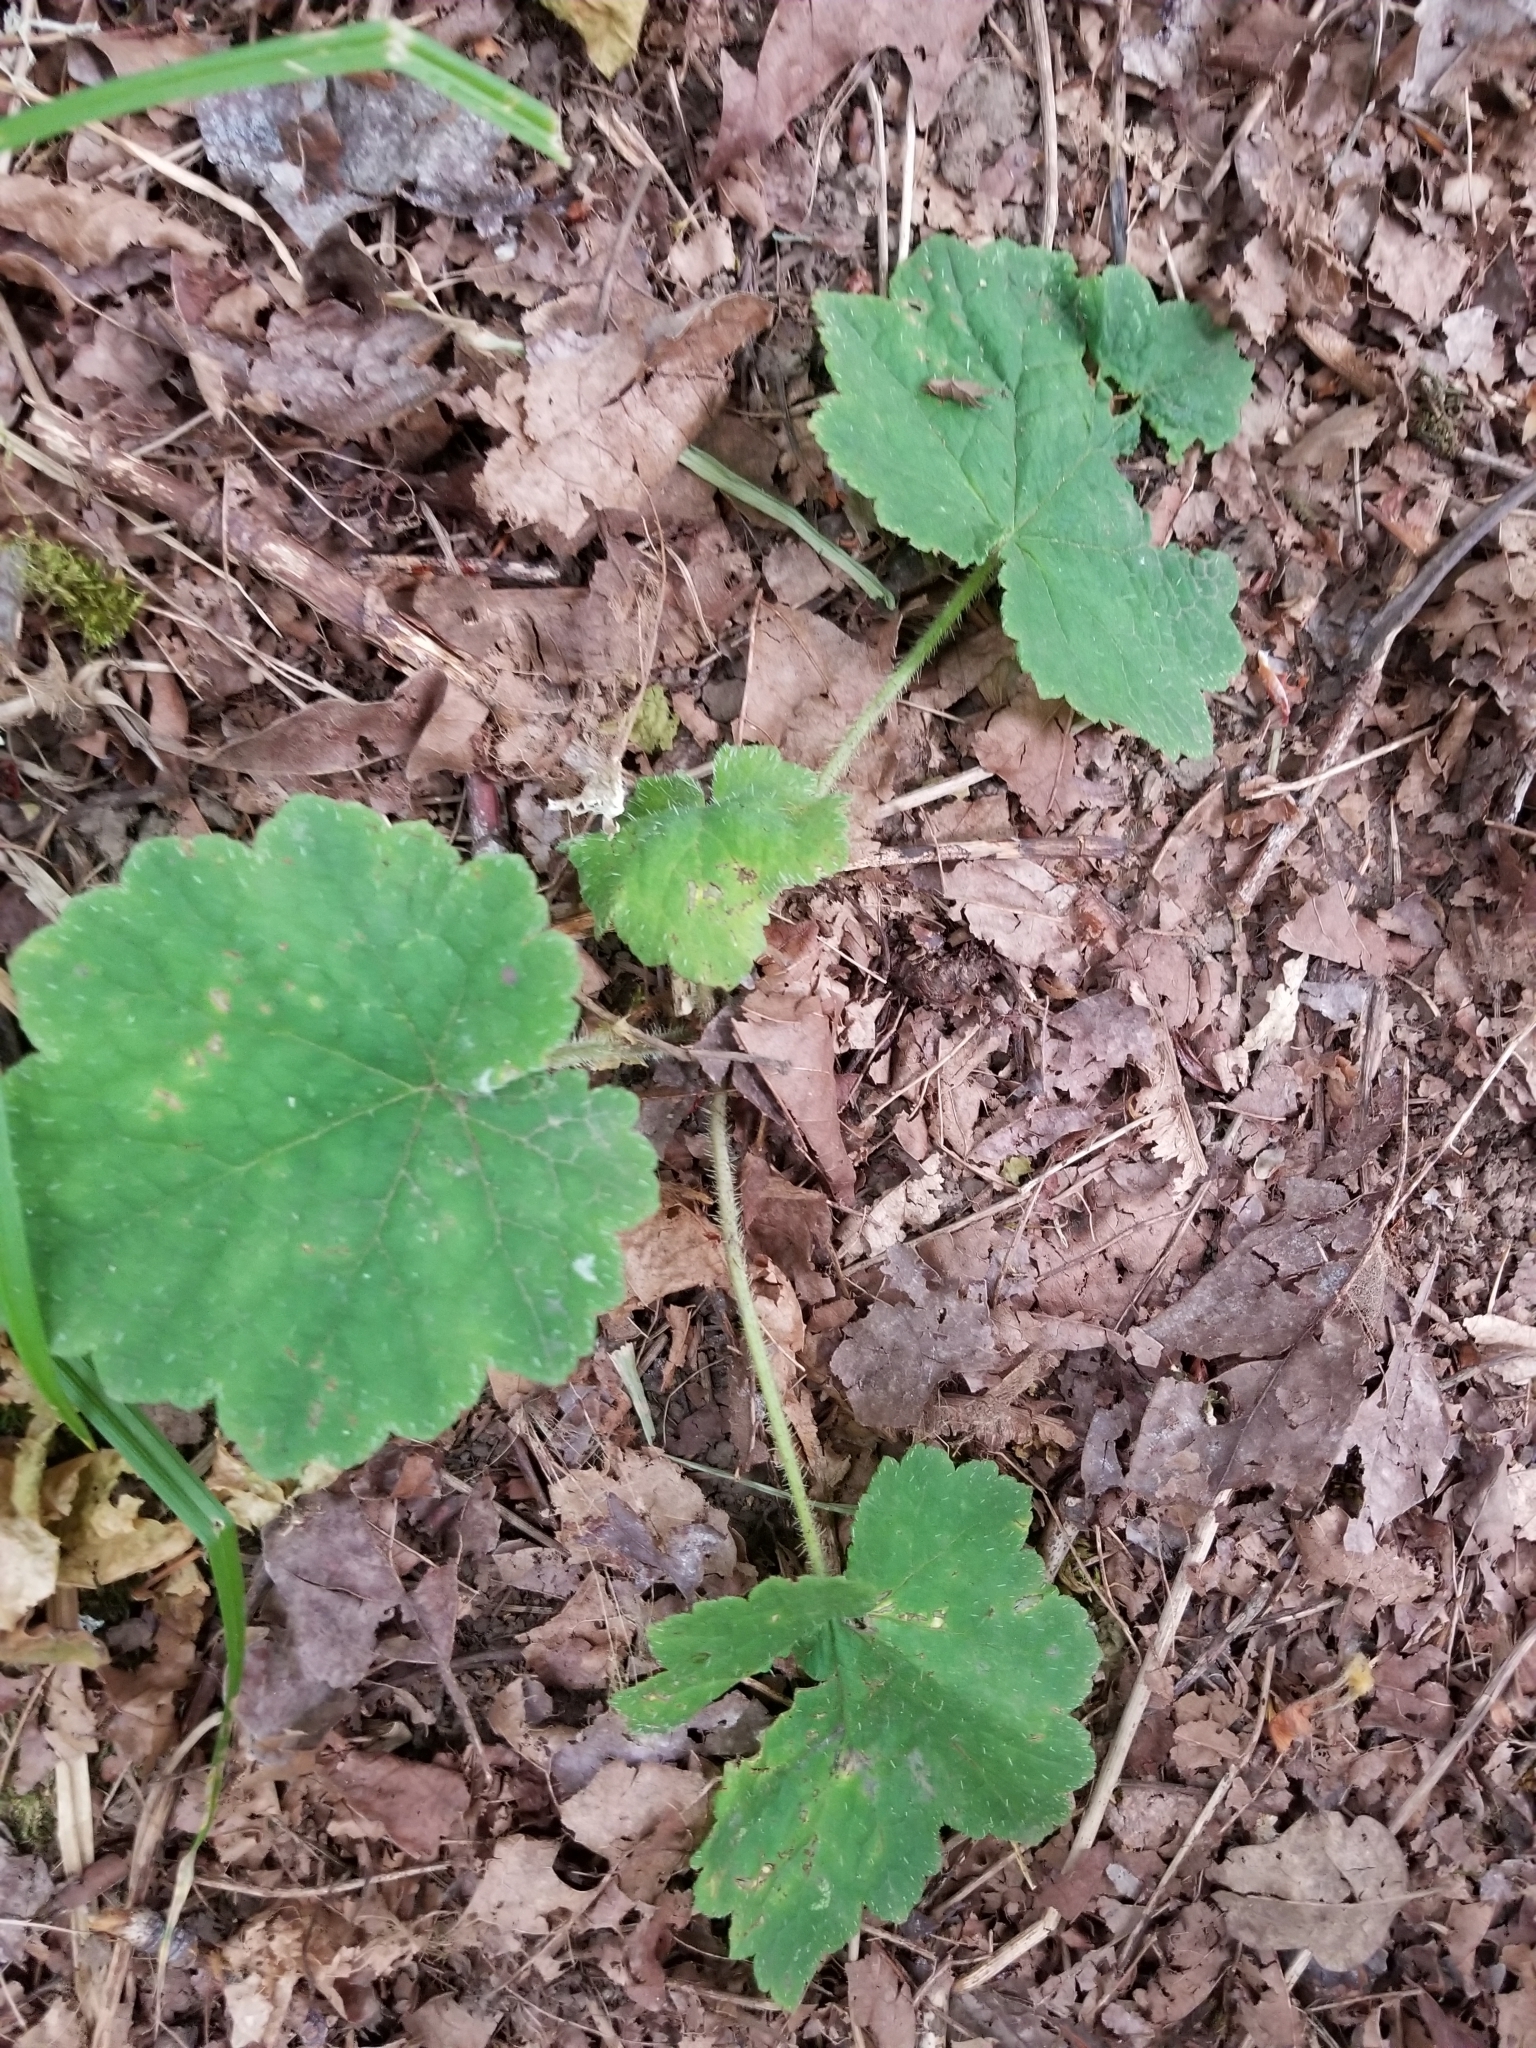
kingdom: Plantae
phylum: Tracheophyta
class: Magnoliopsida
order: Saxifragales
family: Saxifragaceae
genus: Tellima
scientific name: Tellima grandiflora
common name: Fringecups
